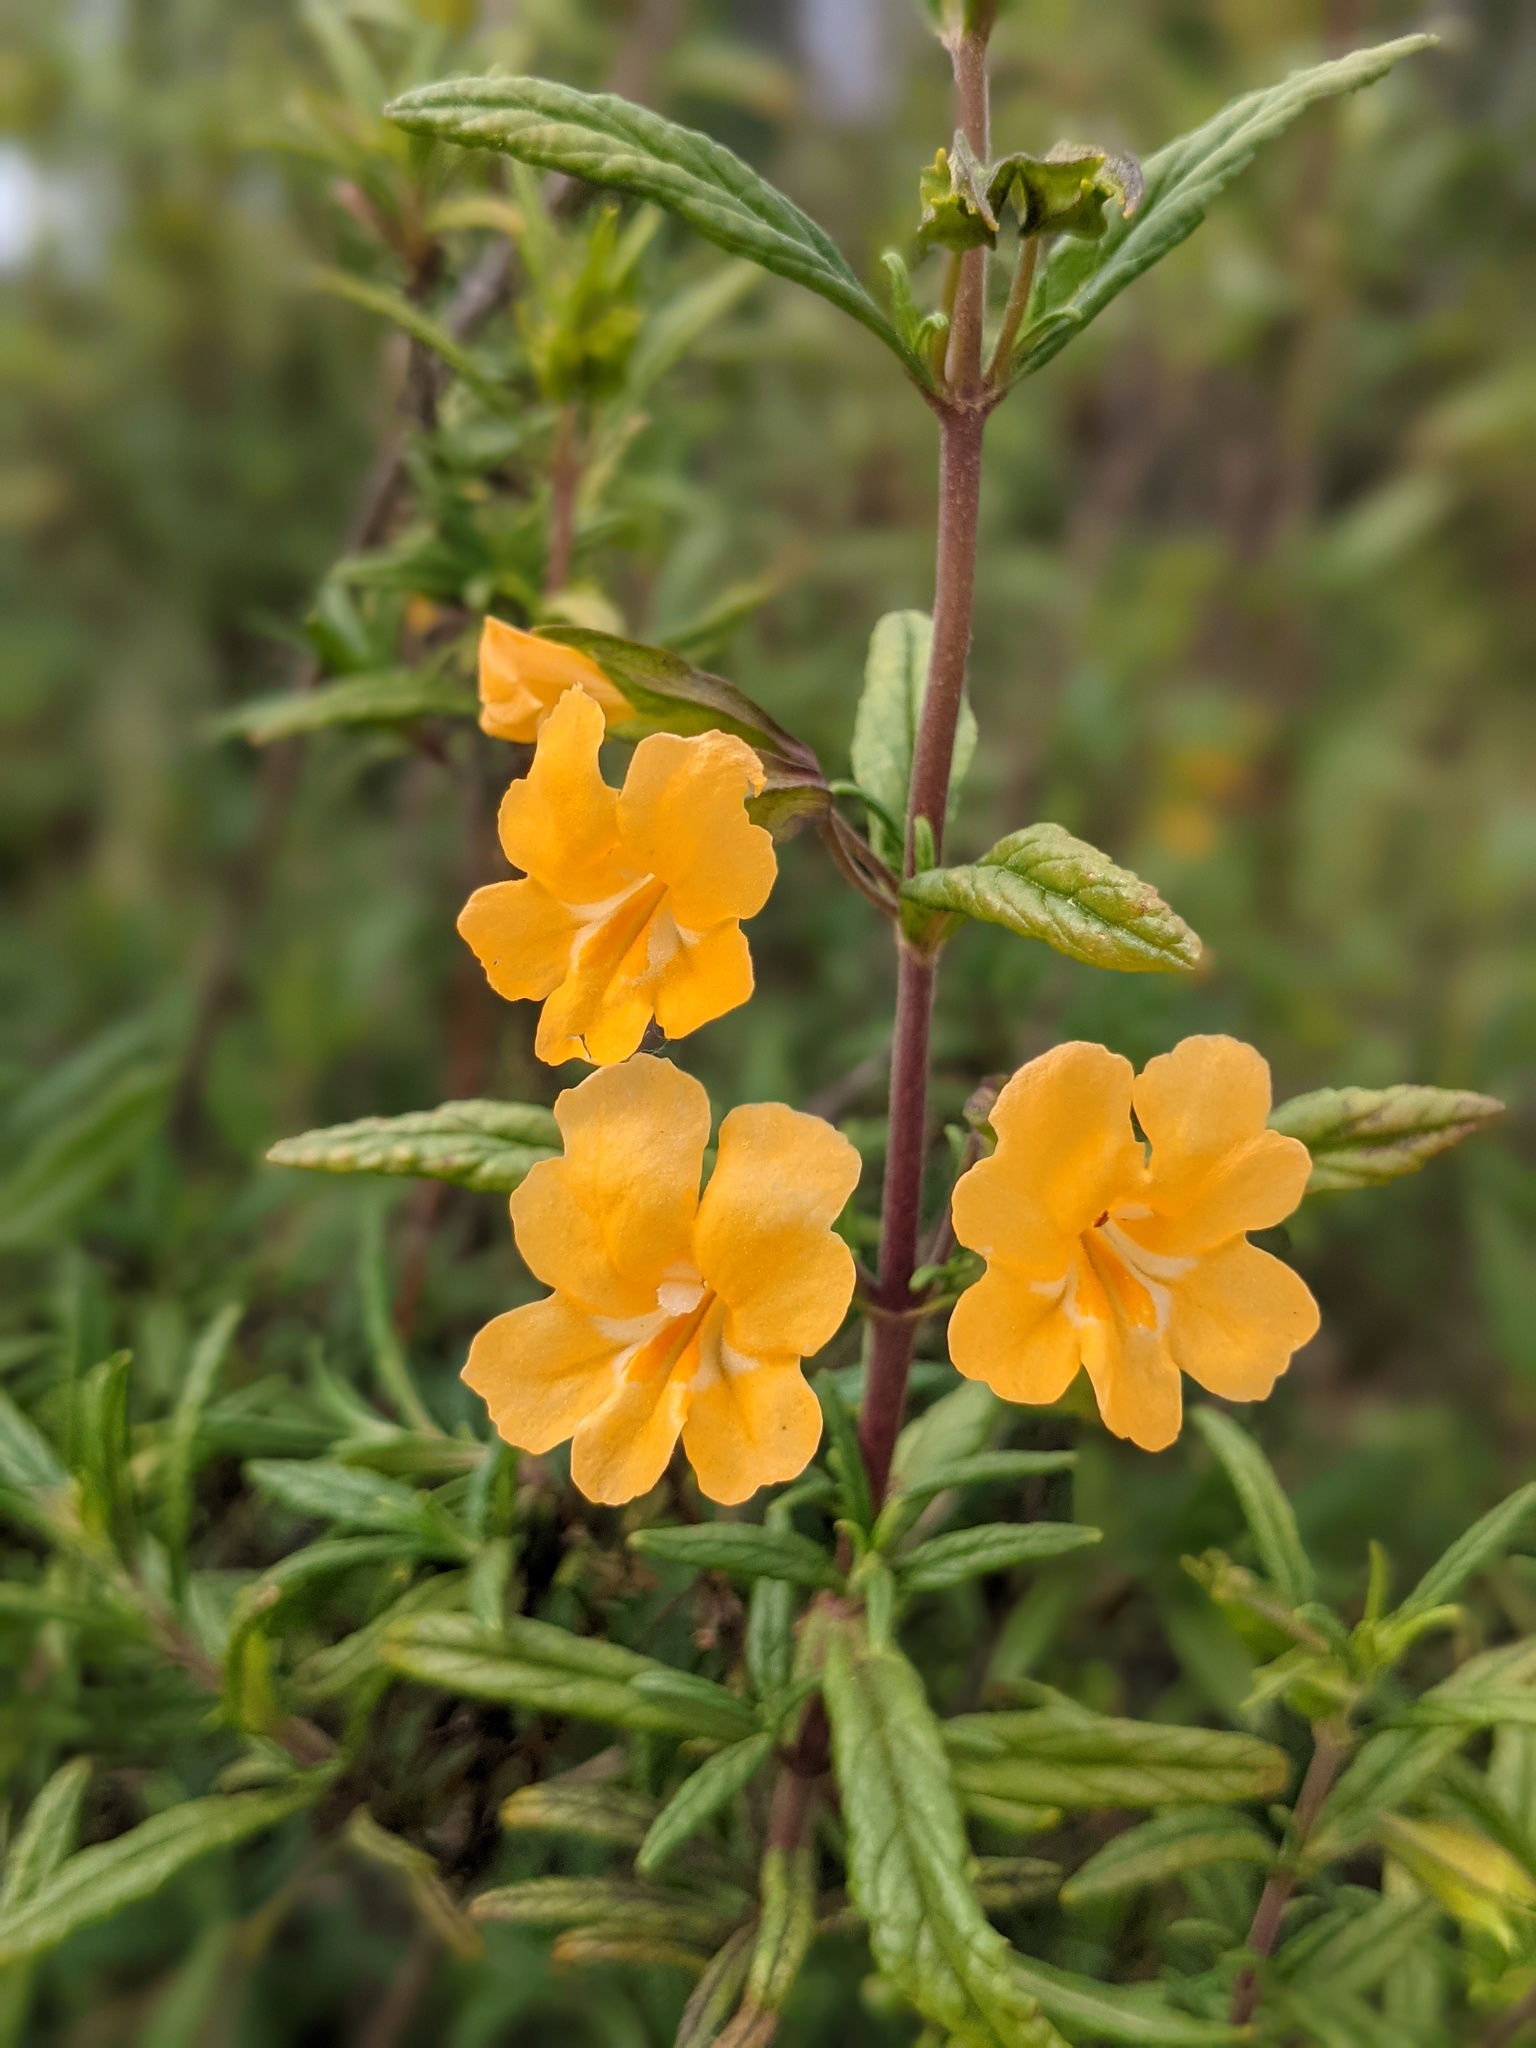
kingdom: Plantae
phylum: Tracheophyta
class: Magnoliopsida
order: Lamiales
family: Phrymaceae
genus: Diplacus
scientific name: Diplacus aurantiacus
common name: Bush monkey-flower
